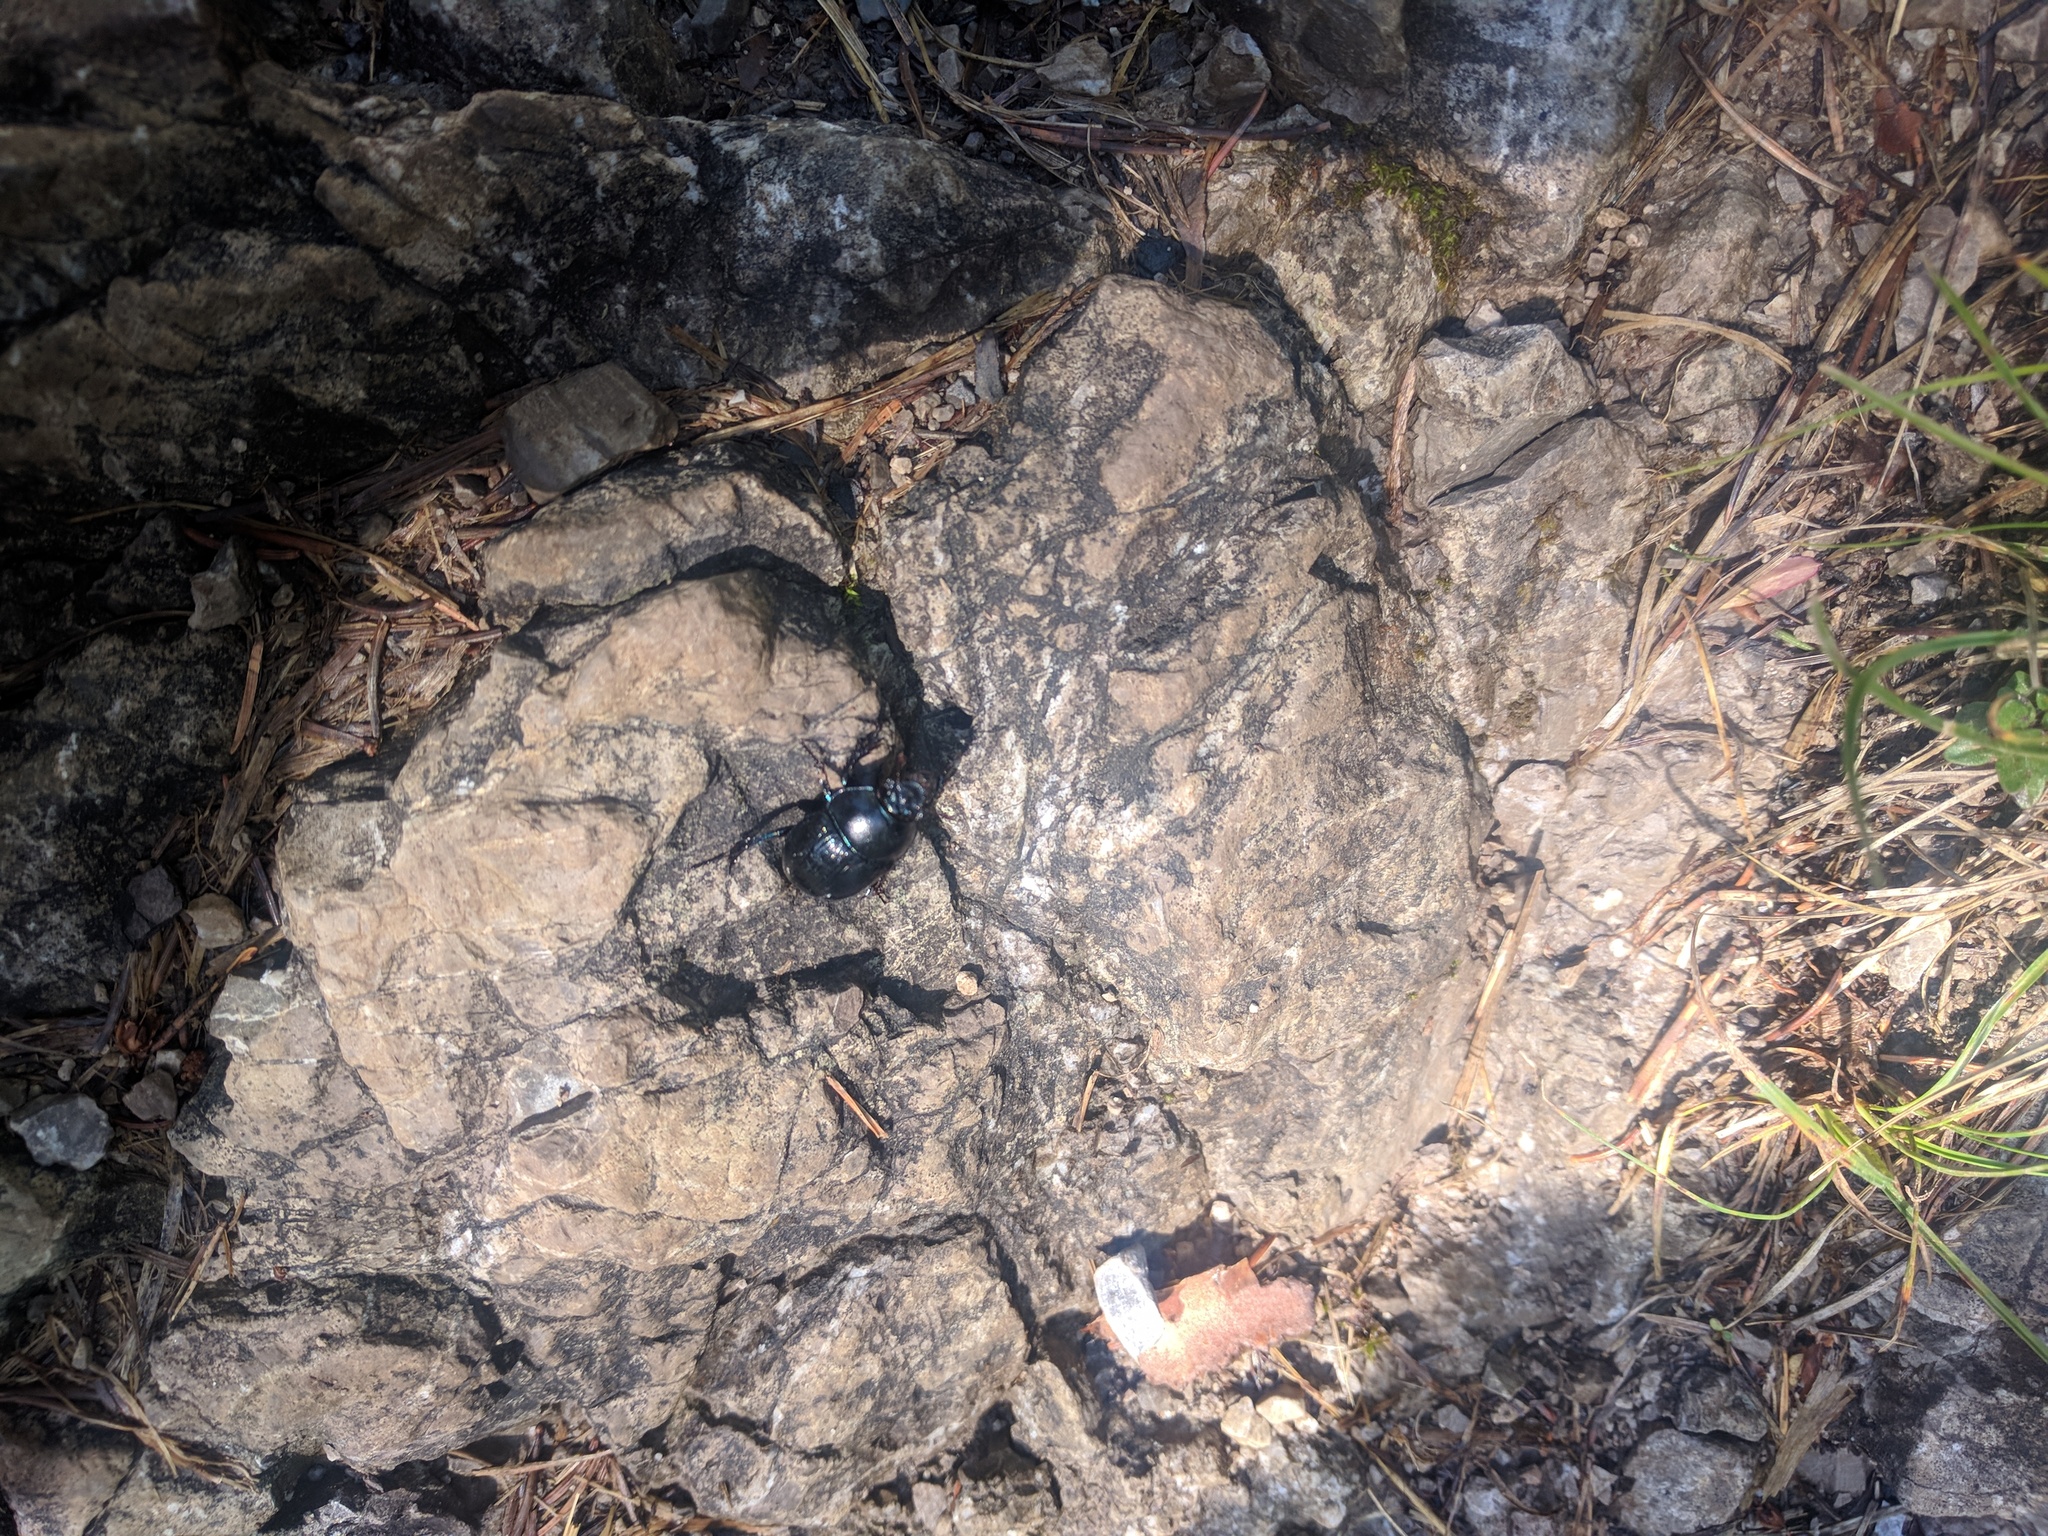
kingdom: Animalia
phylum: Arthropoda
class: Insecta
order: Coleoptera
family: Geotrupidae
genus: Anoplotrupes
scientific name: Anoplotrupes stercorosus
